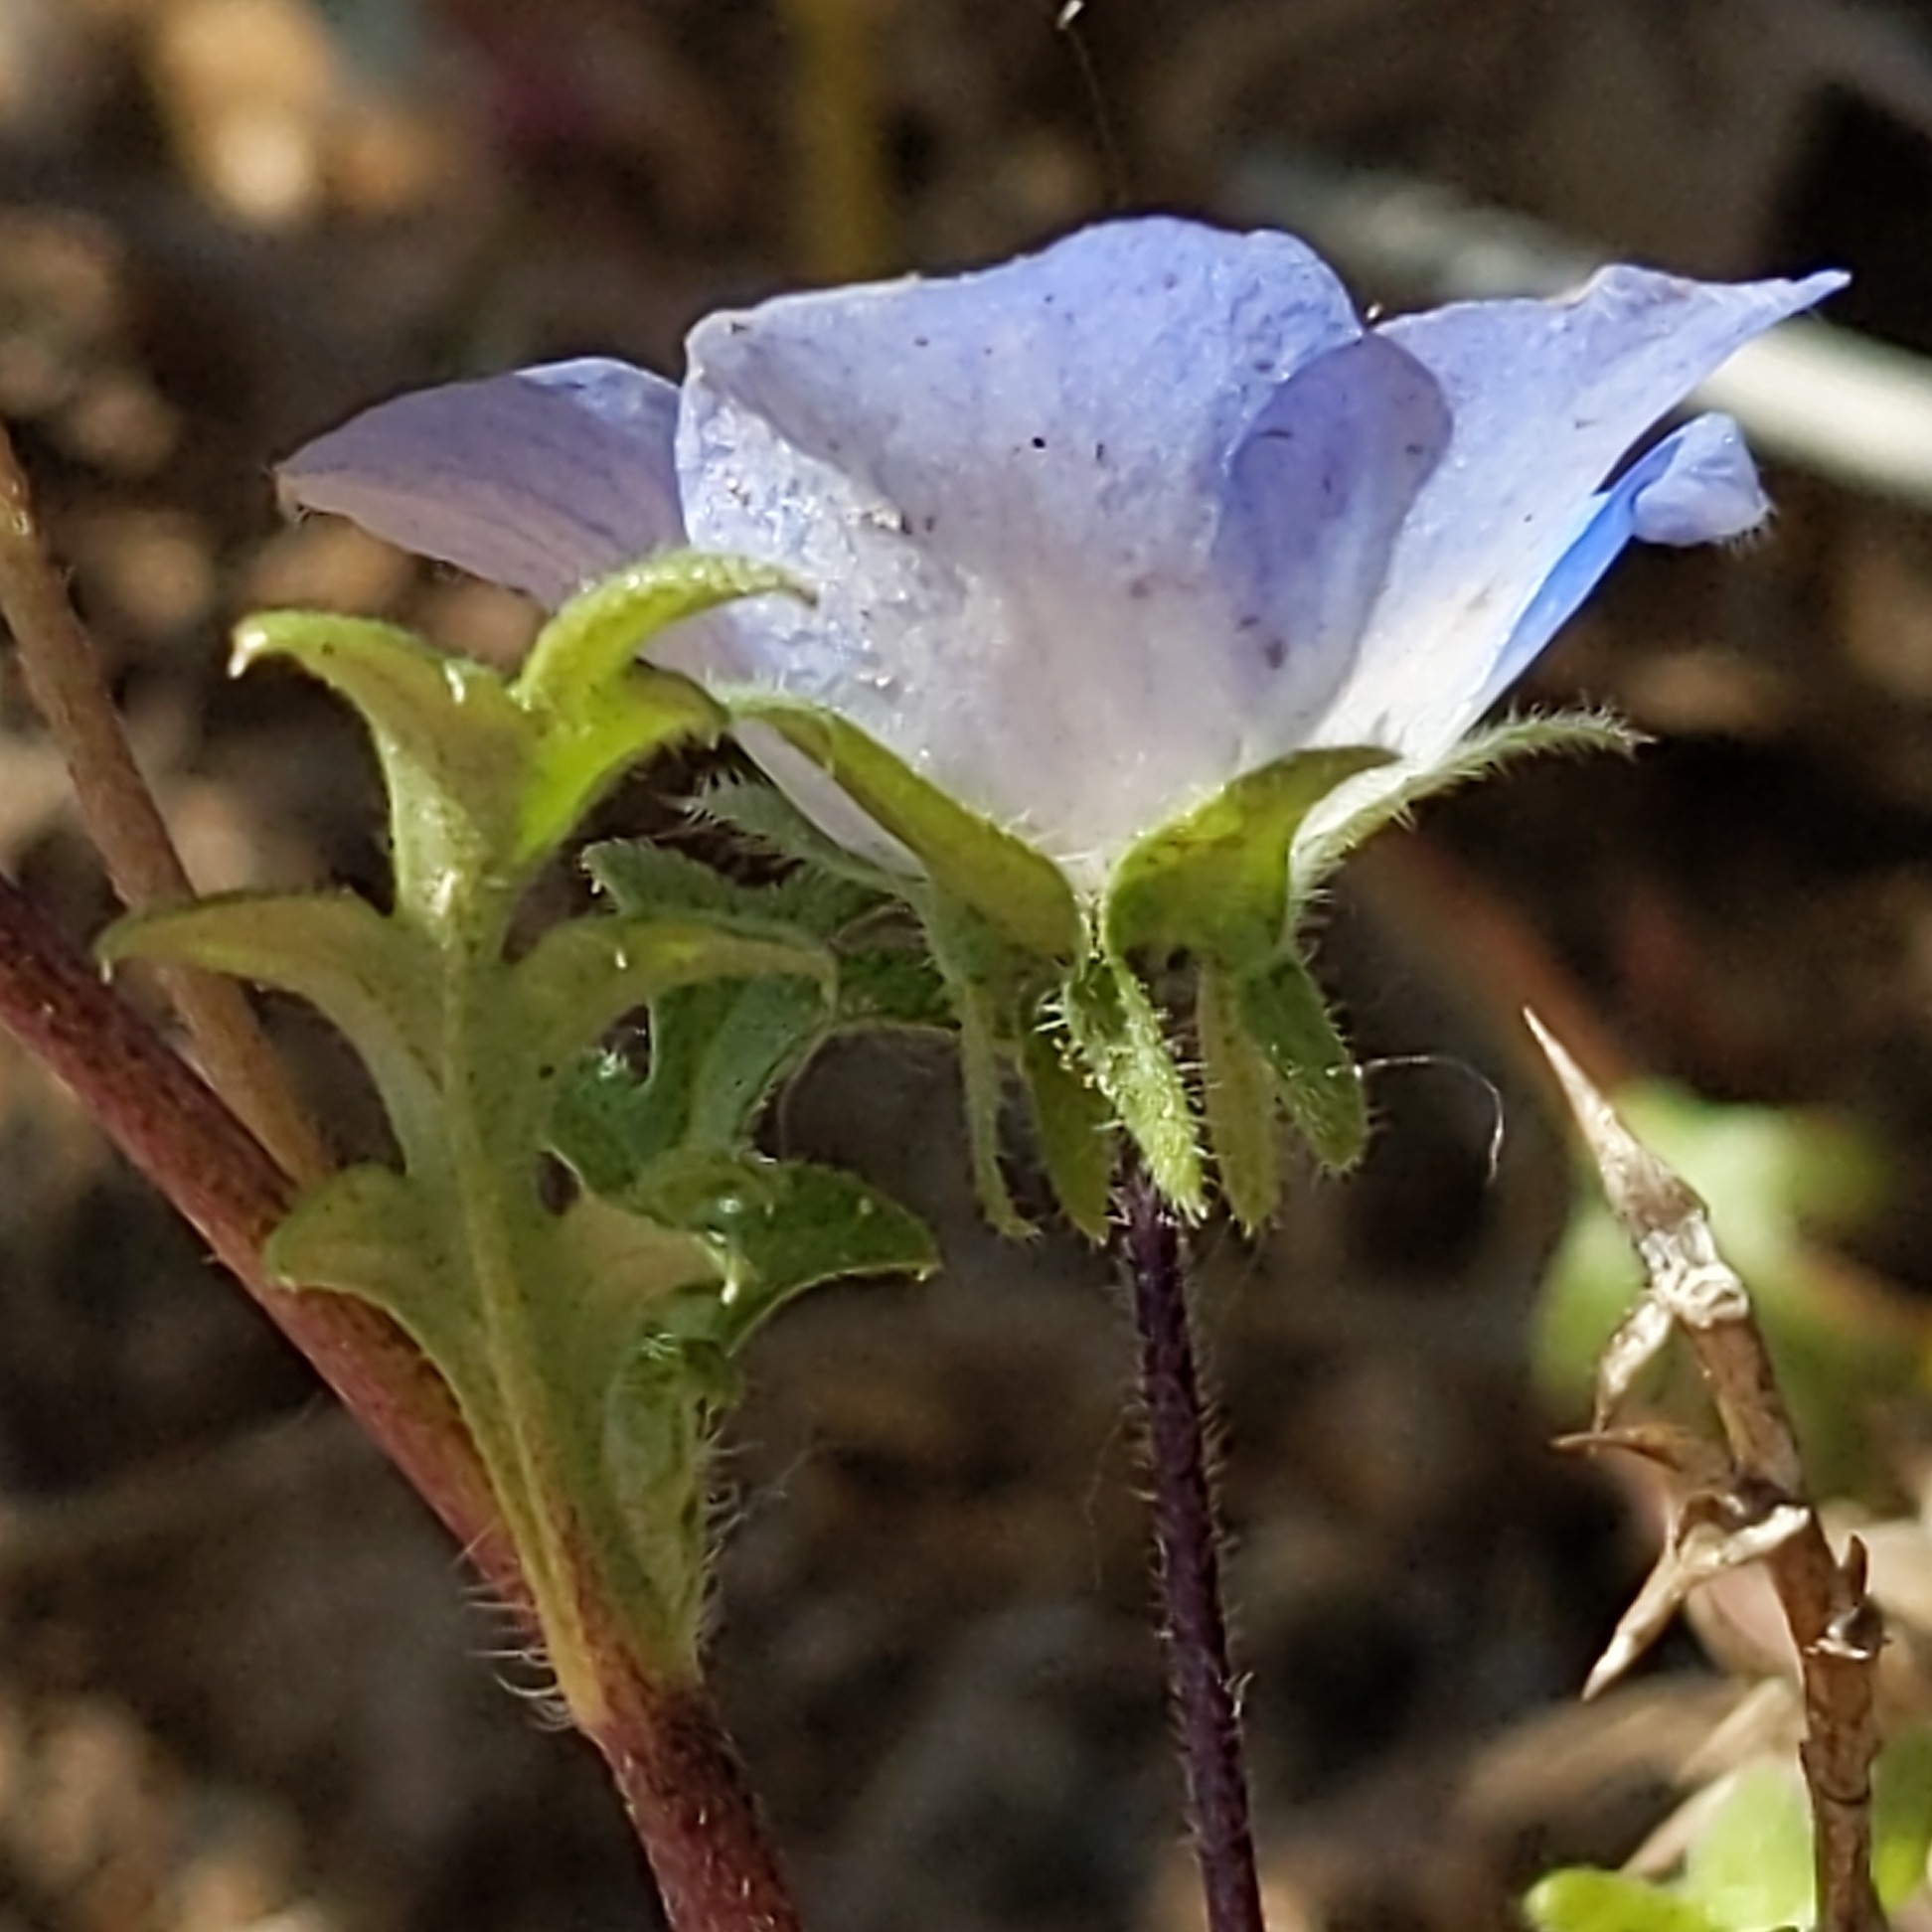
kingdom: Plantae
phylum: Tracheophyta
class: Magnoliopsida
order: Boraginales
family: Hydrophyllaceae
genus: Nemophila
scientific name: Nemophila menziesii
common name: Baby's-blue-eyes
